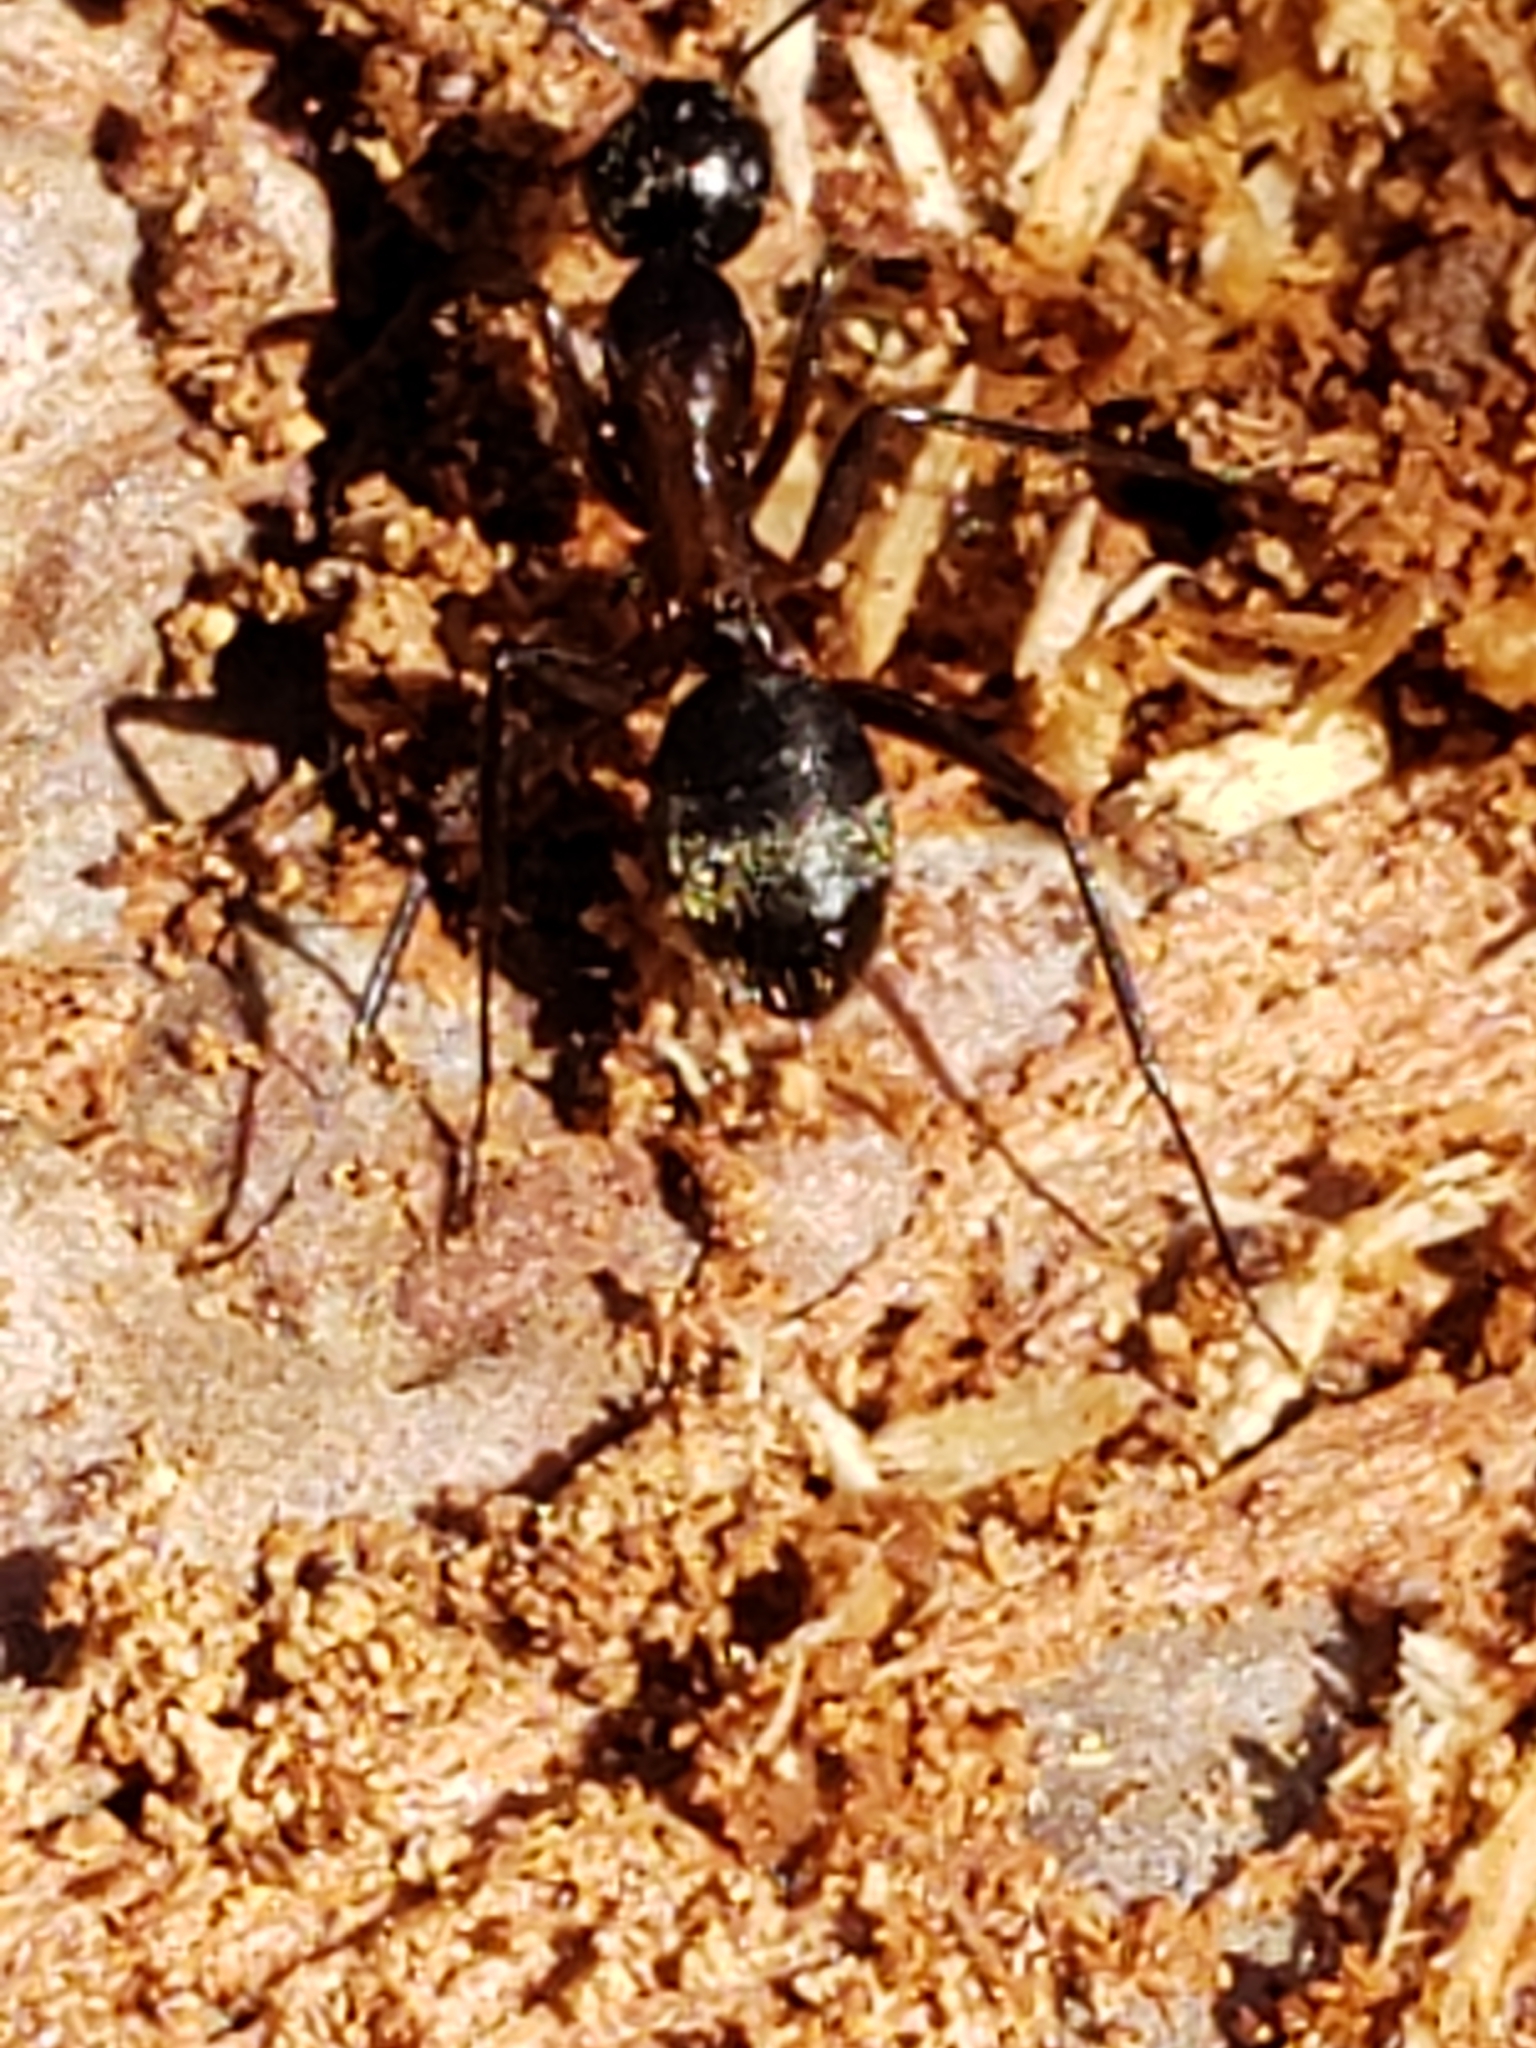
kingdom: Animalia
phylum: Arthropoda
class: Insecta
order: Hymenoptera
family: Formicidae
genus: Camponotus
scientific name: Camponotus chromaiodes
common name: Red carpenter ant
